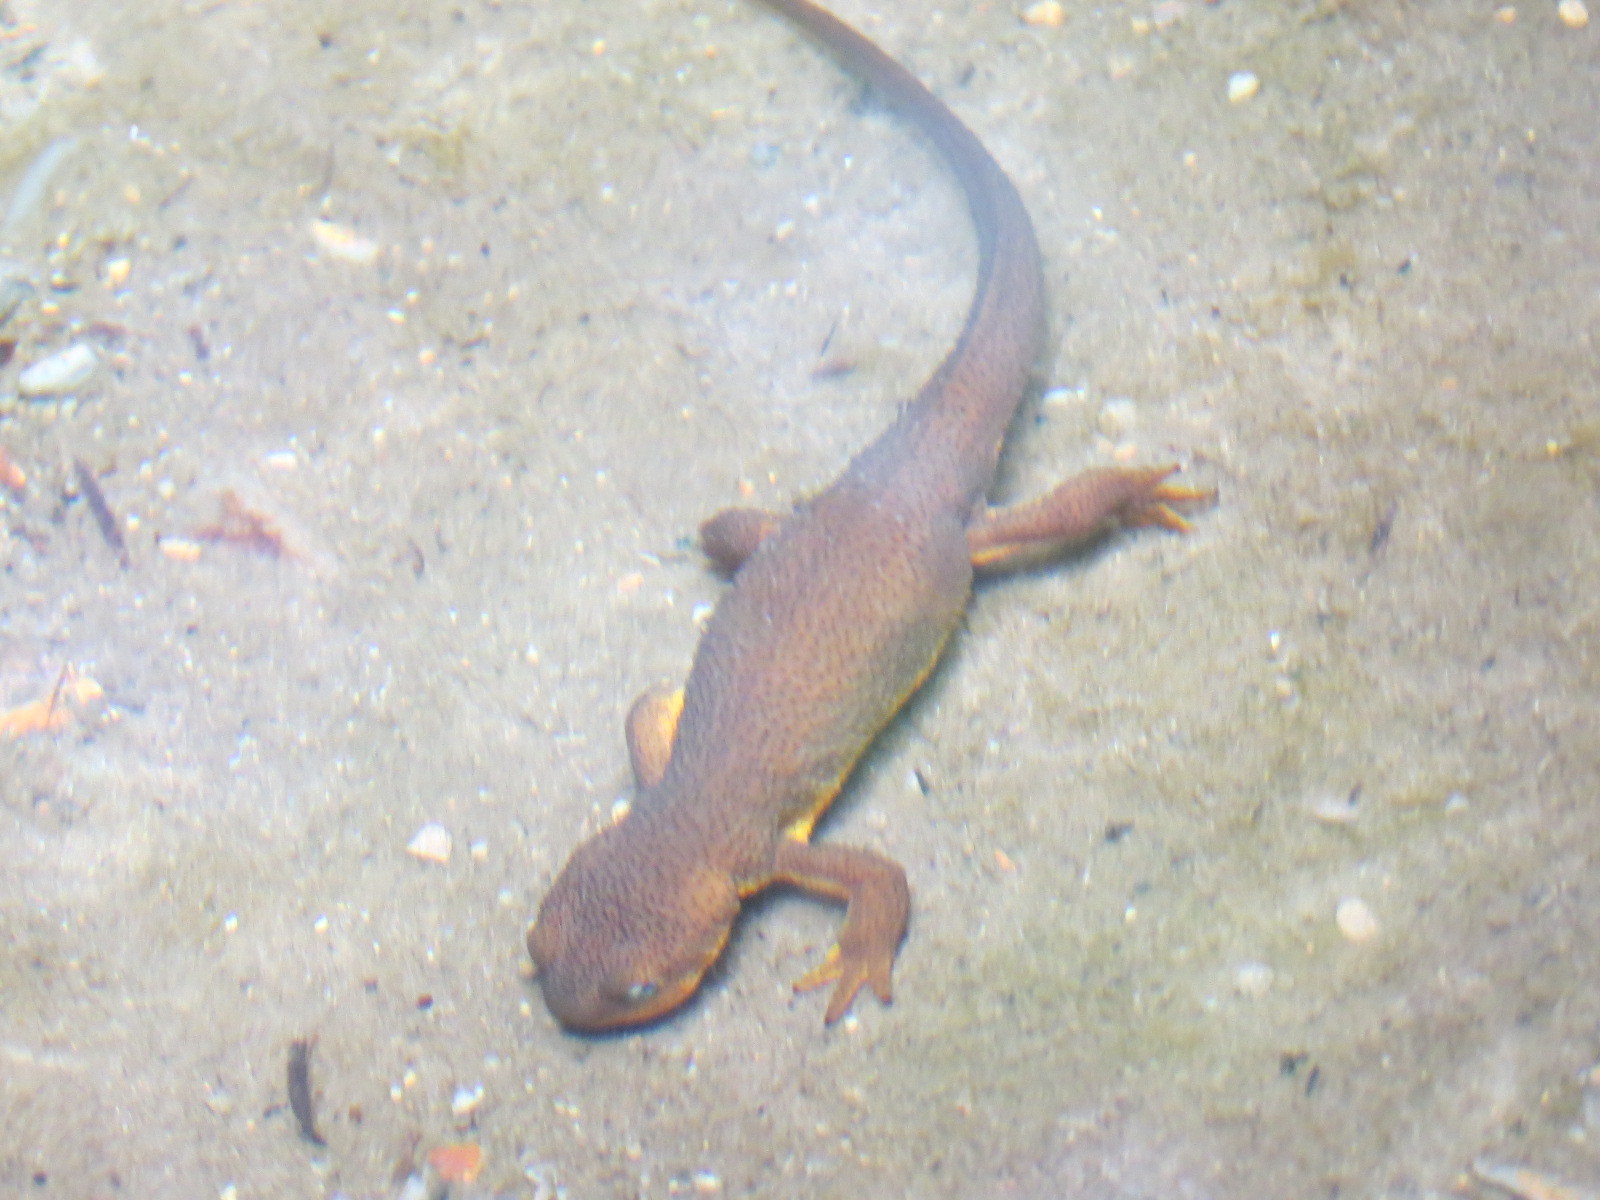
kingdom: Animalia
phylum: Chordata
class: Amphibia
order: Caudata
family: Salamandridae
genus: Taricha
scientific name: Taricha granulosa
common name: Roughskin newt
